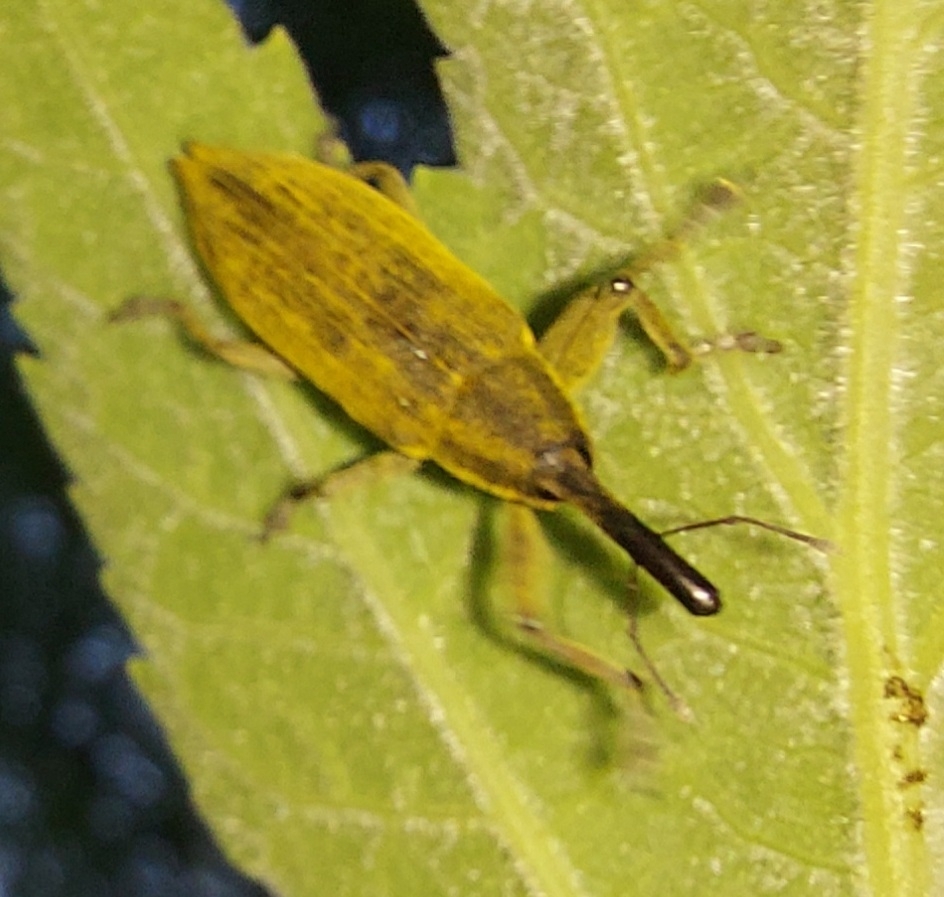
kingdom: Animalia
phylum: Arthropoda
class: Insecta
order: Coleoptera
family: Curculionidae
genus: Lixus
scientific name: Lixus iridis
